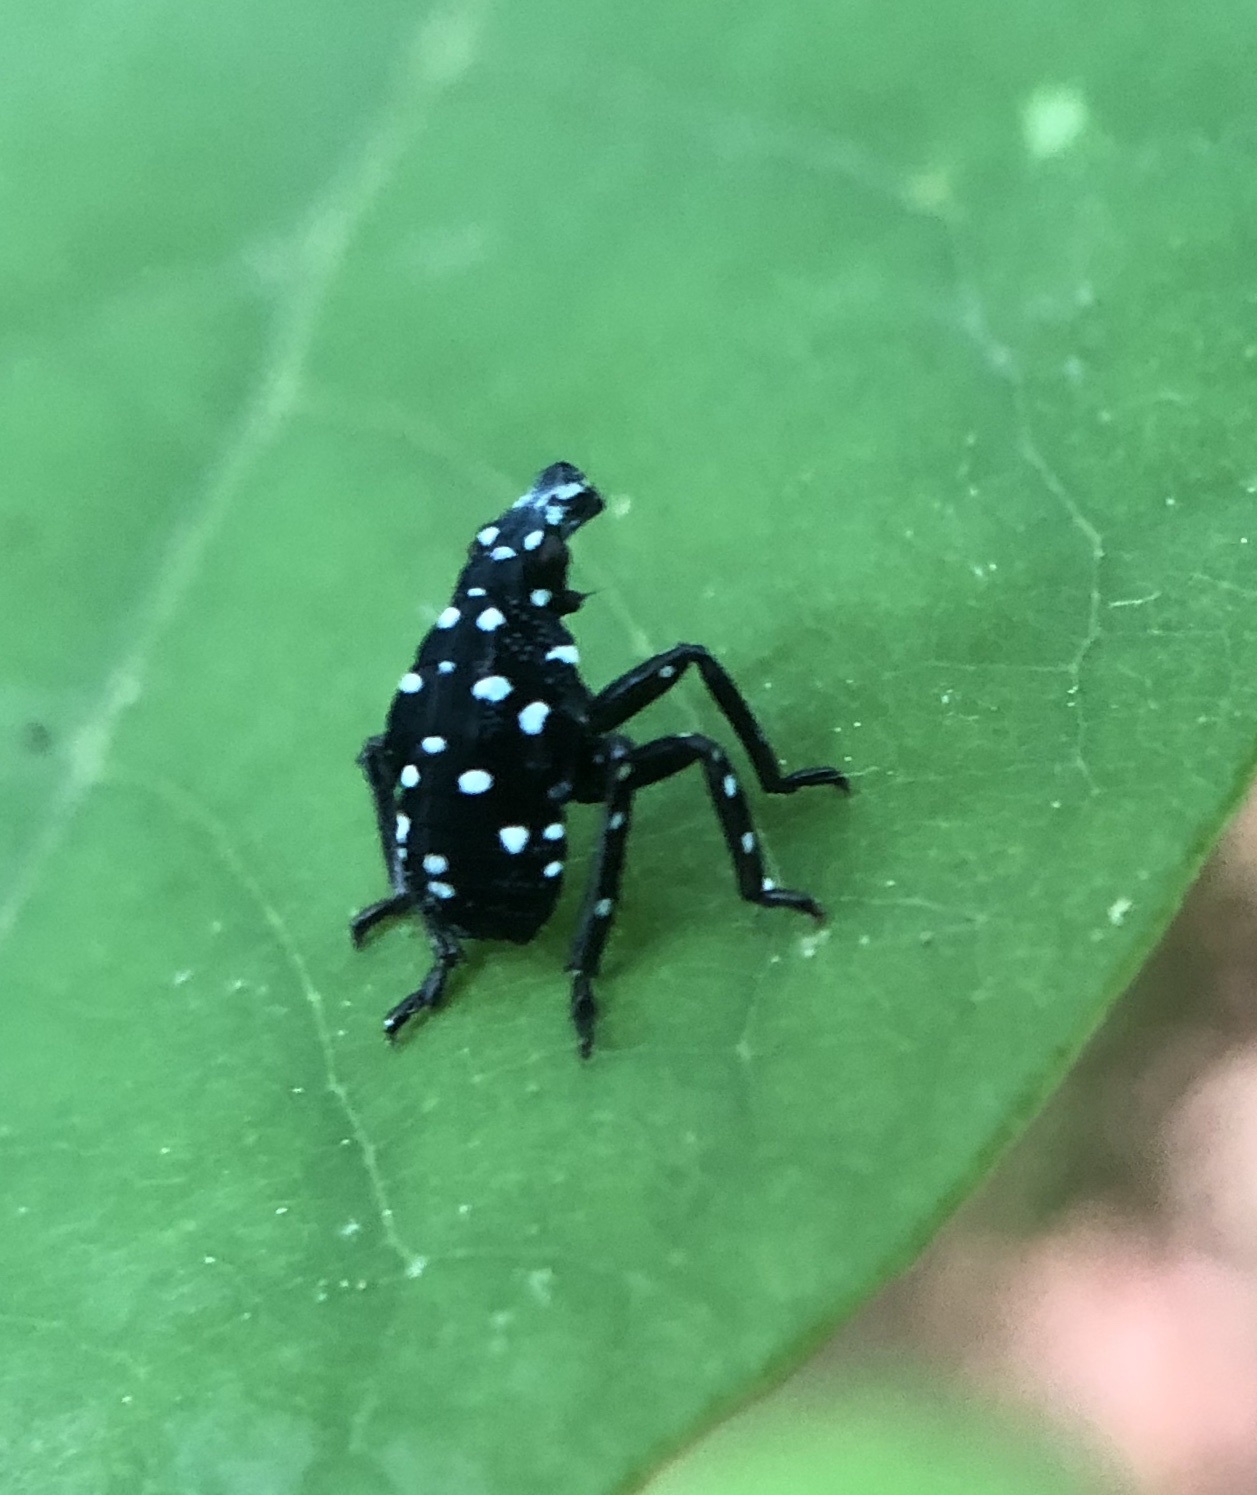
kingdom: Animalia
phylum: Arthropoda
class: Insecta
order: Hemiptera
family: Fulgoridae
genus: Lycorma
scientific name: Lycorma delicatula
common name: Spotted lanternfly
